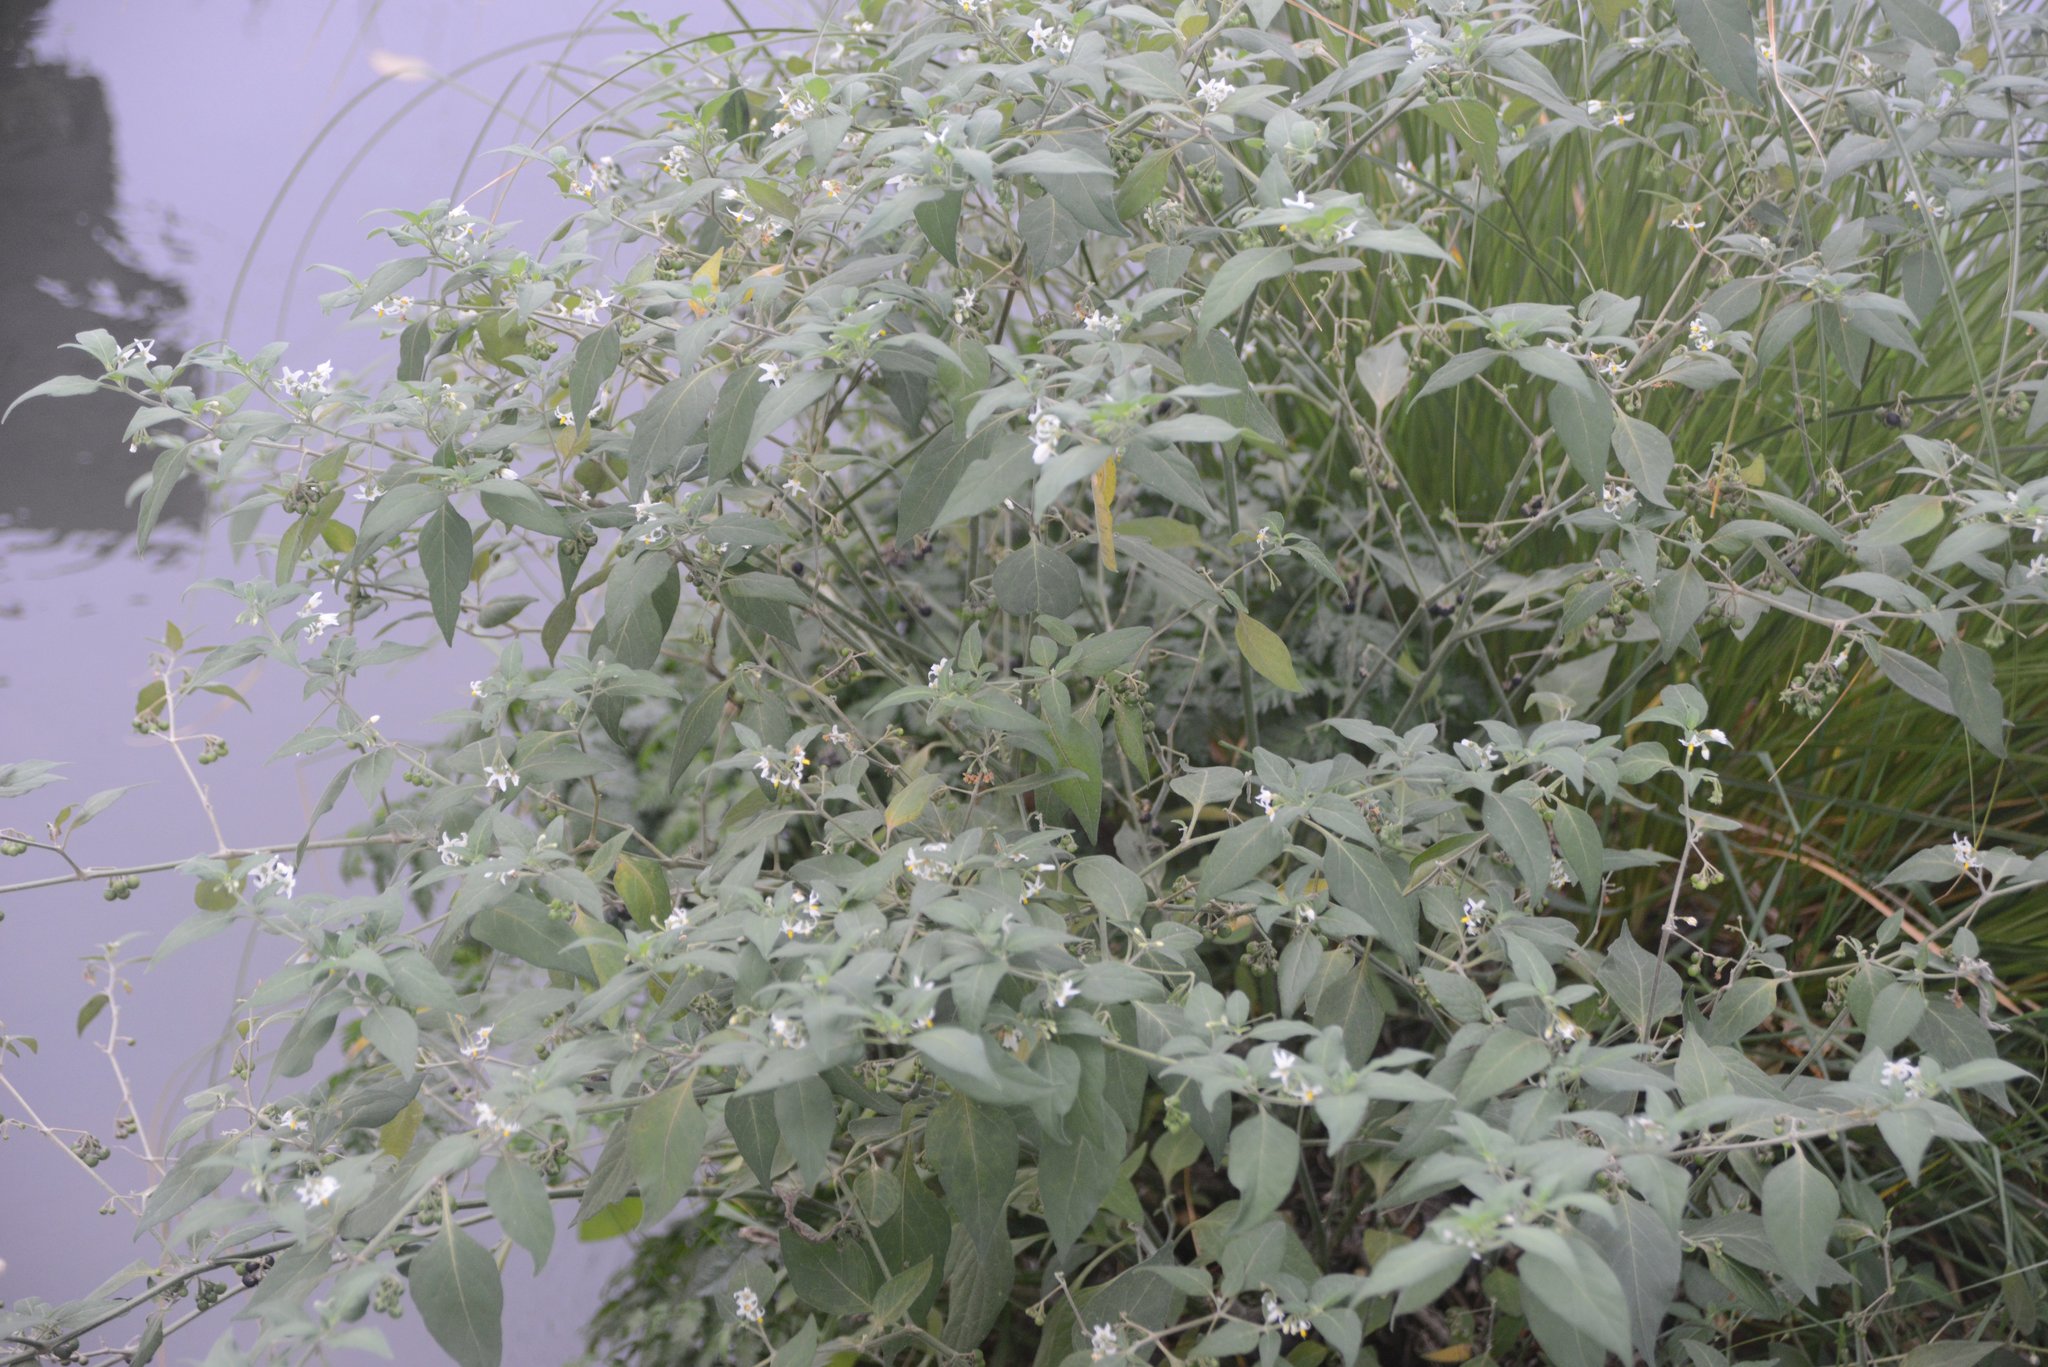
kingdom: Plantae
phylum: Tracheophyta
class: Magnoliopsida
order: Solanales
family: Solanaceae
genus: Solanum
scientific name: Solanum chenopodioides
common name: Tall nightshade
